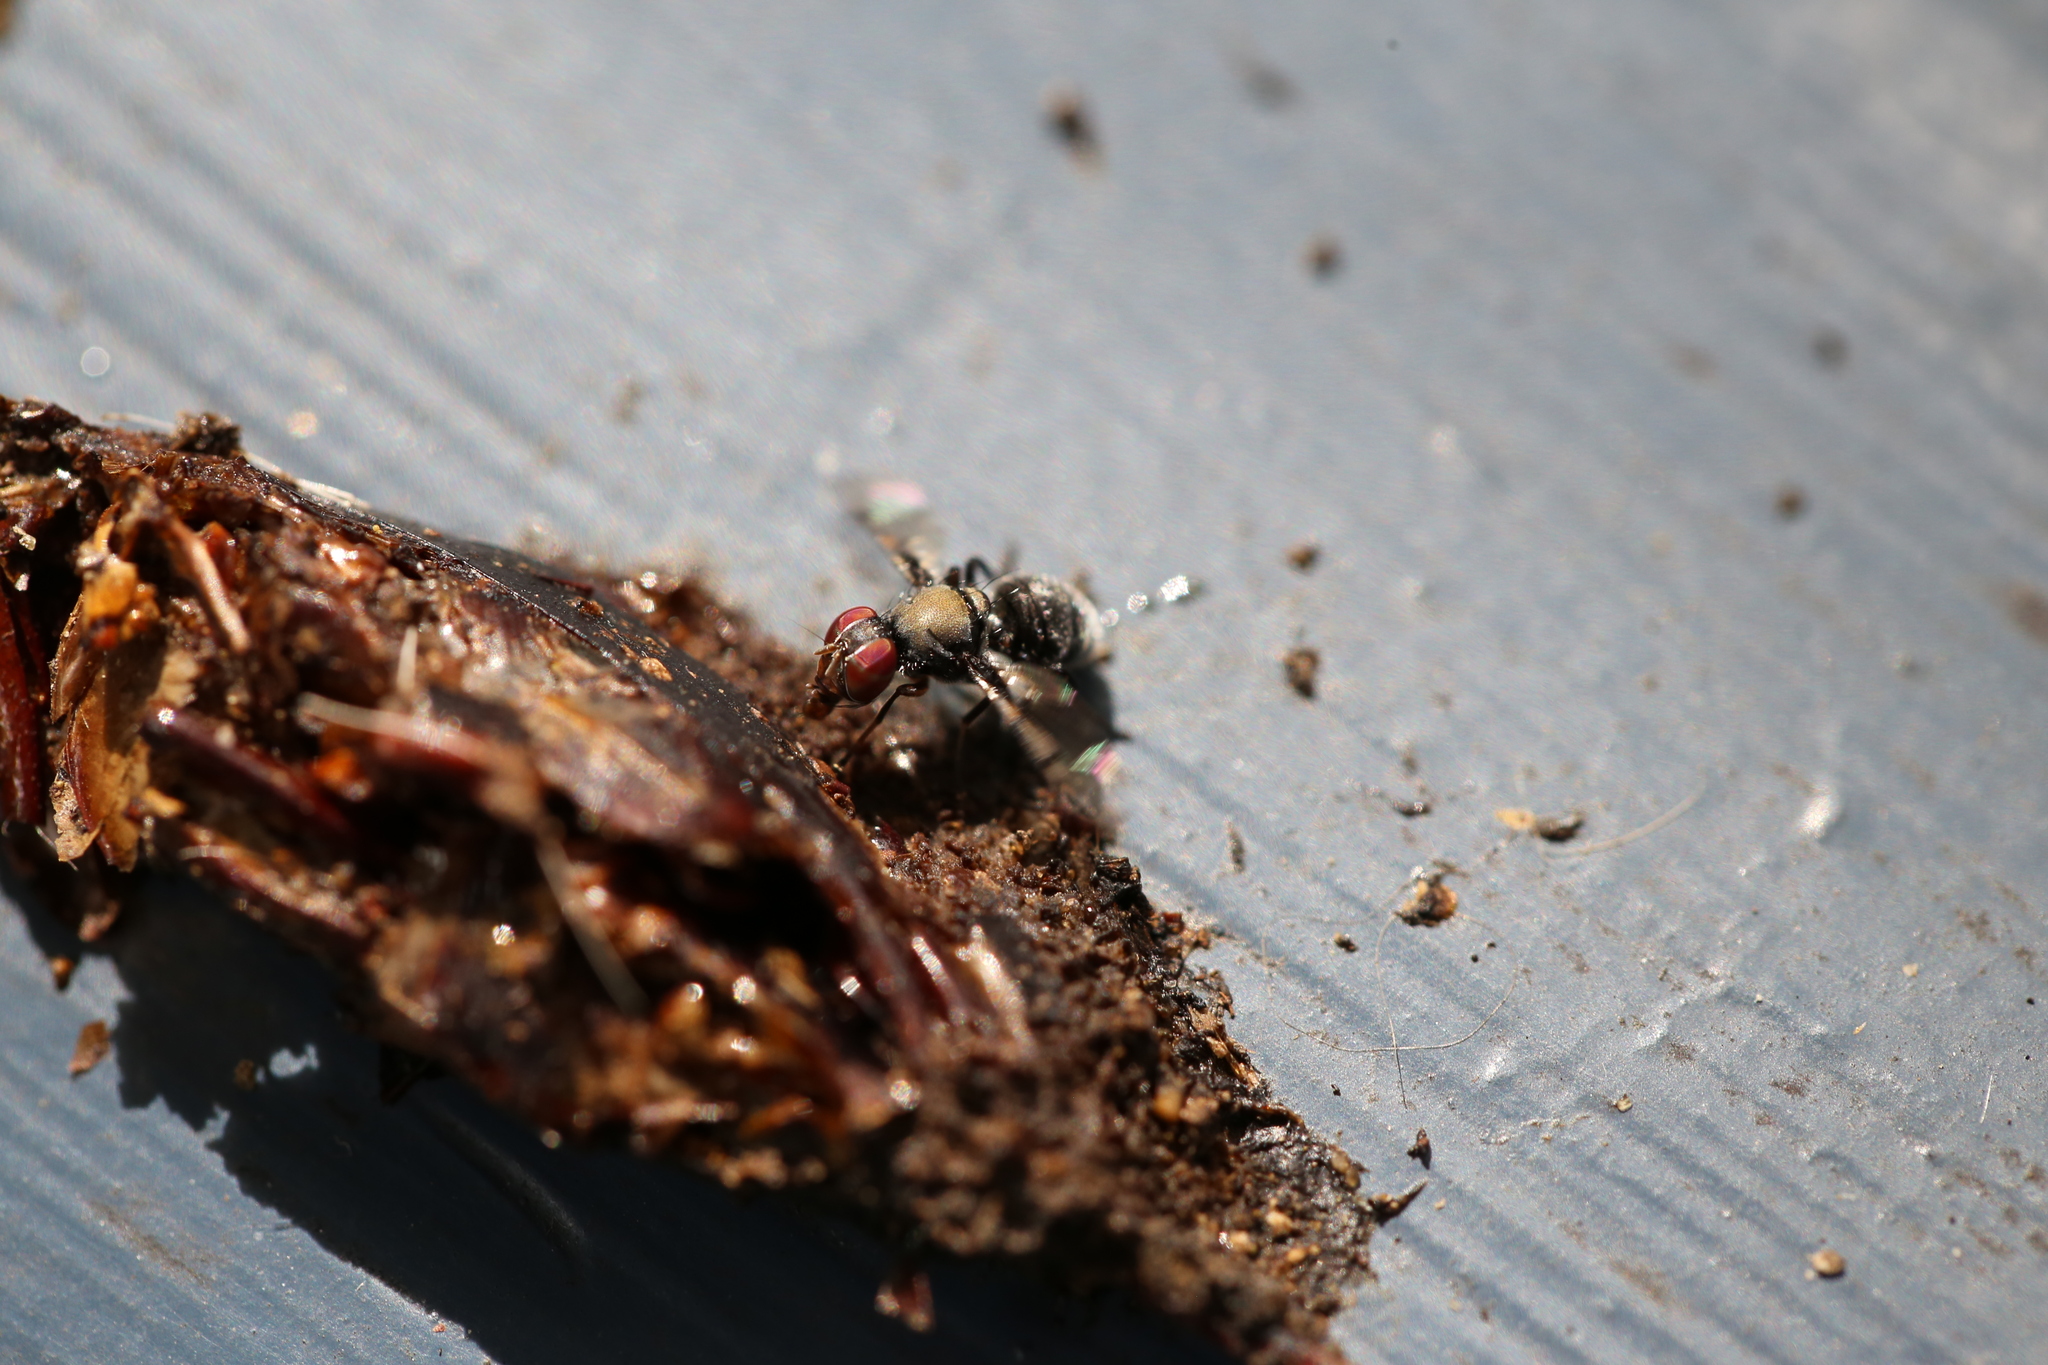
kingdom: Animalia
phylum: Arthropoda
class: Insecta
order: Diptera
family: Platystomatidae
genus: Pogonortalis
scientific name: Pogonortalis doclea
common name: Boatman fly
